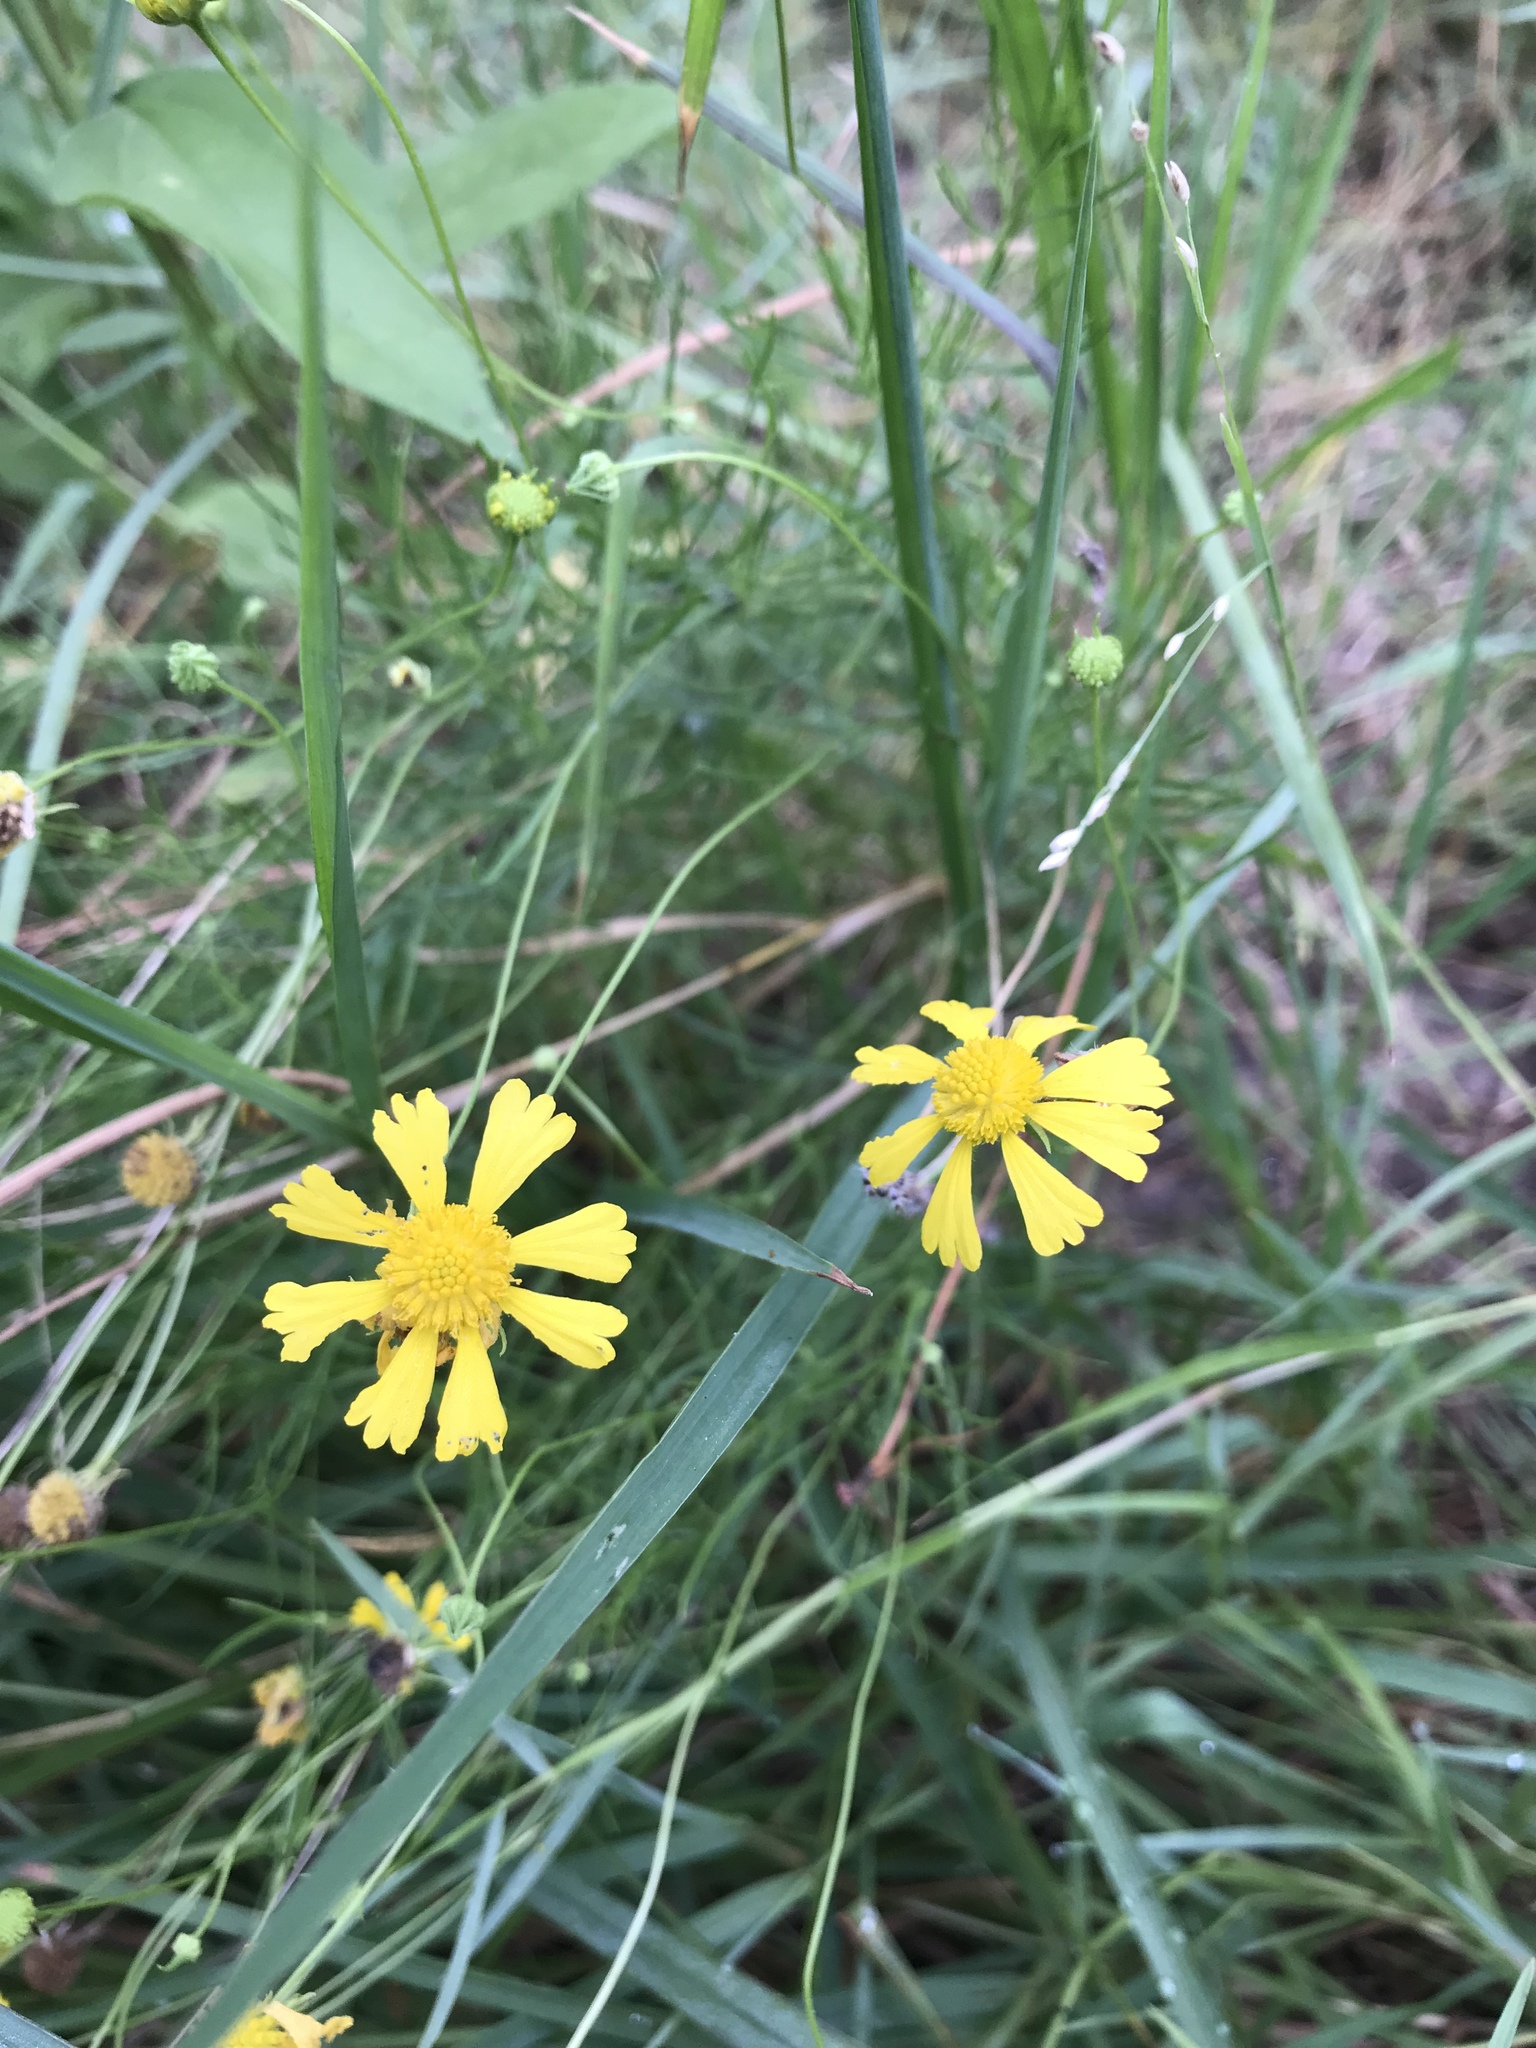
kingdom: Plantae
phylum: Tracheophyta
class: Magnoliopsida
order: Asterales
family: Asteraceae
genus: Helenium
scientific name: Helenium amarum
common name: Bitter sneezeweed
